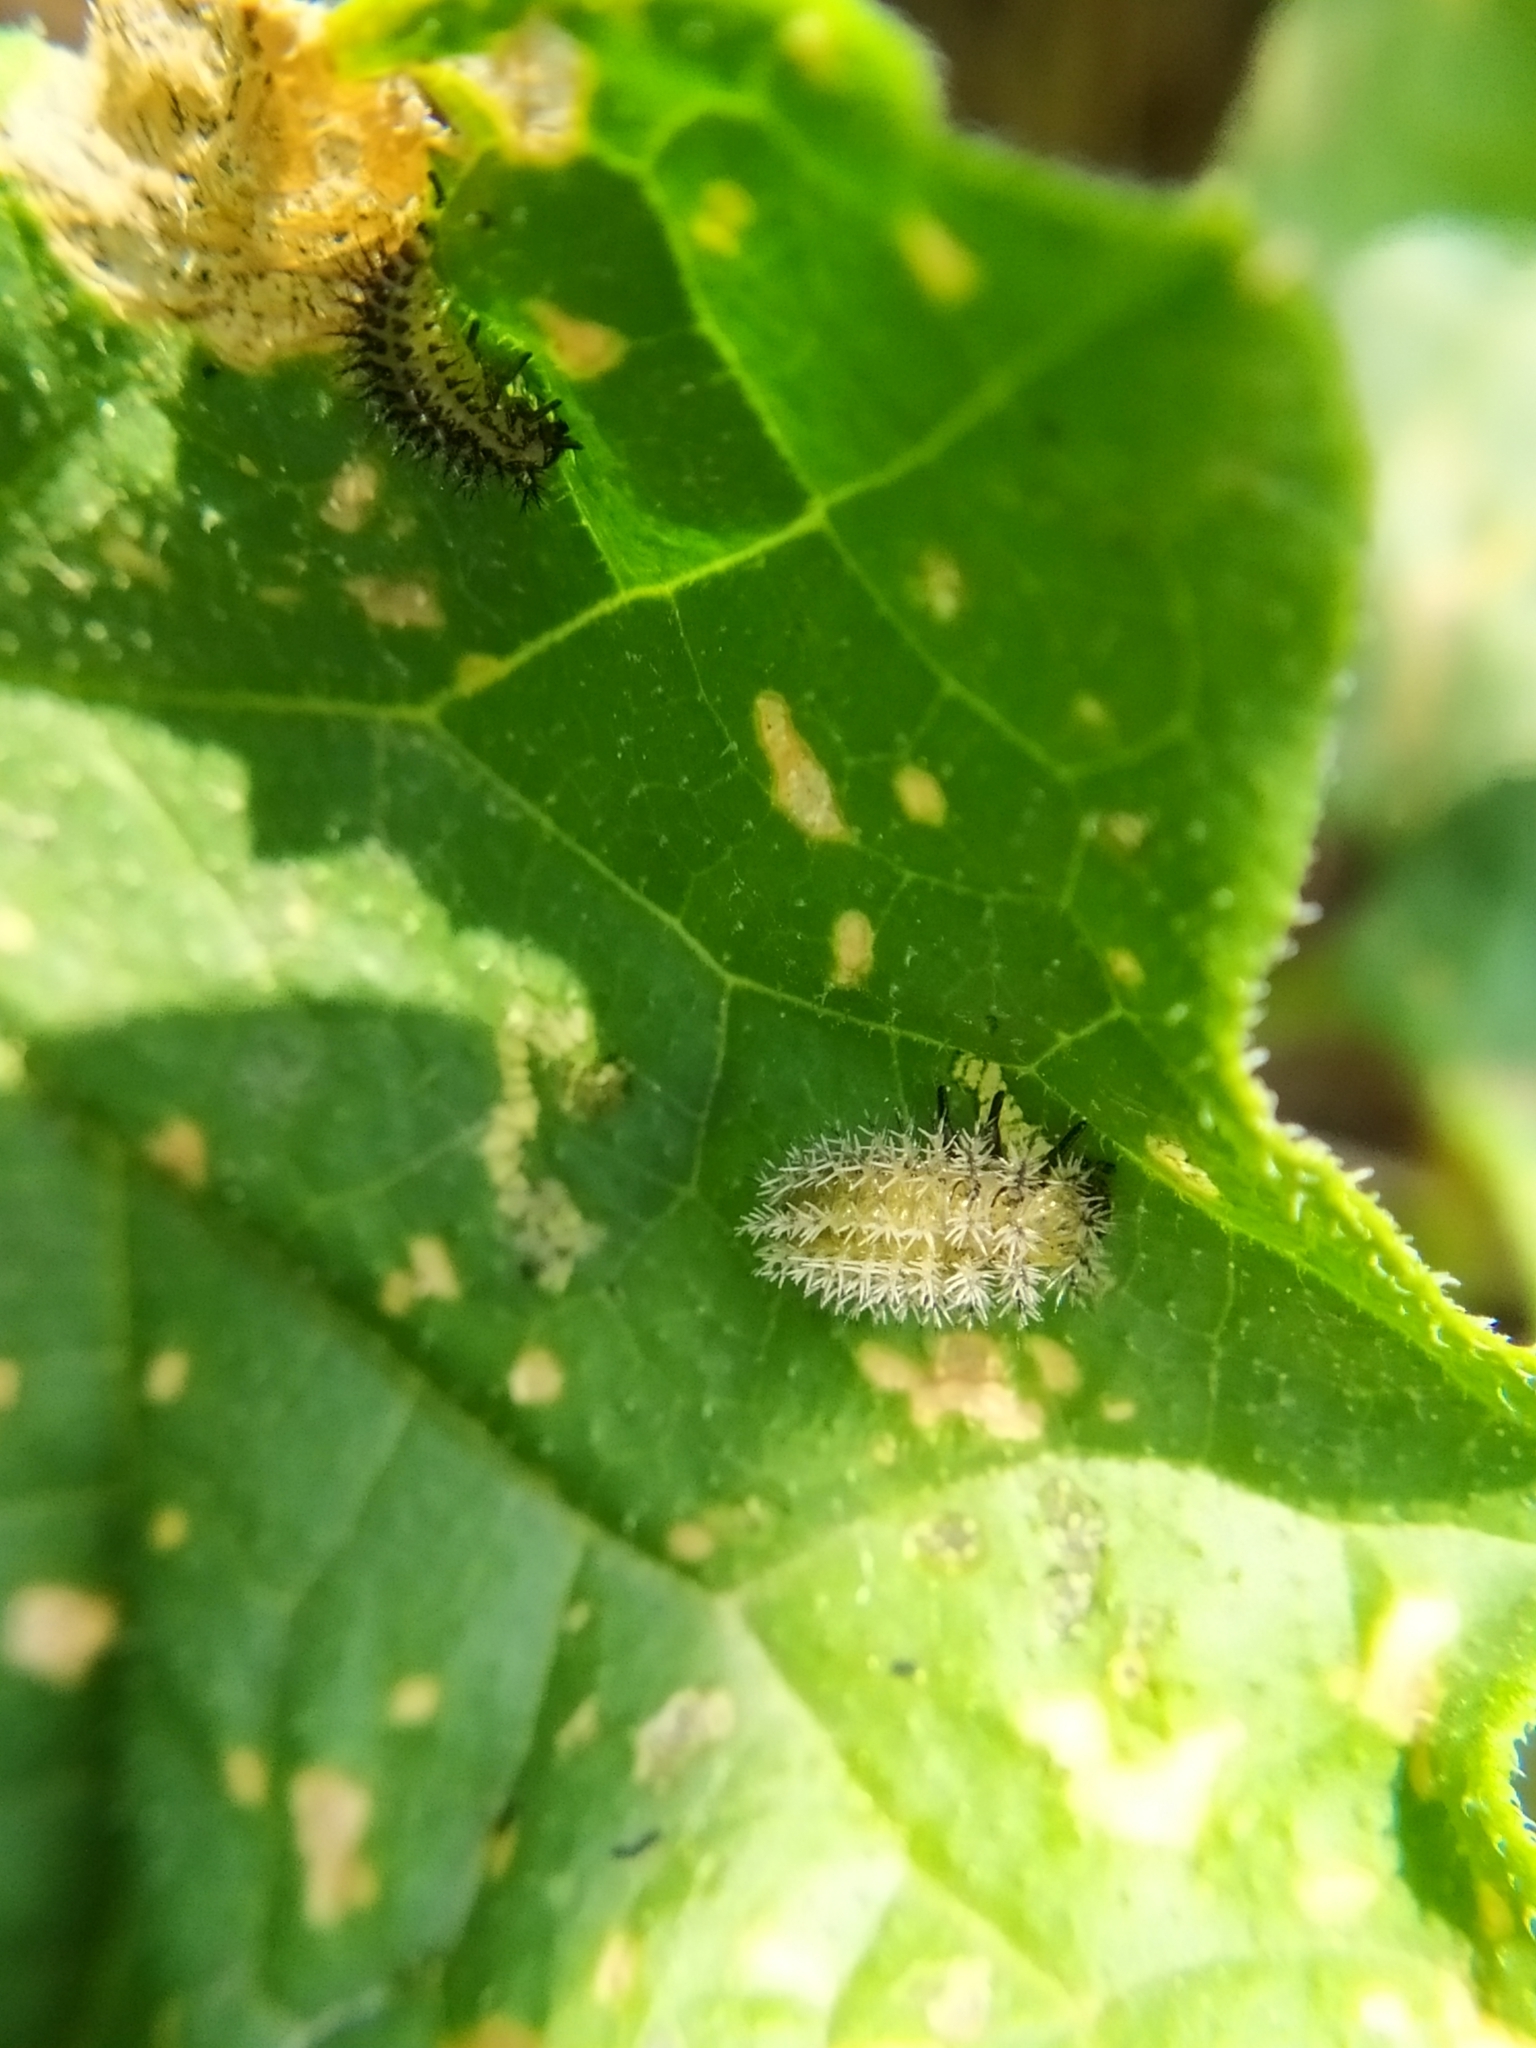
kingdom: Animalia
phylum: Arthropoda
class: Insecta
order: Coleoptera
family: Coccinellidae
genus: Henosepilachna
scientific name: Henosepilachna argus
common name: Bryony ladybird
